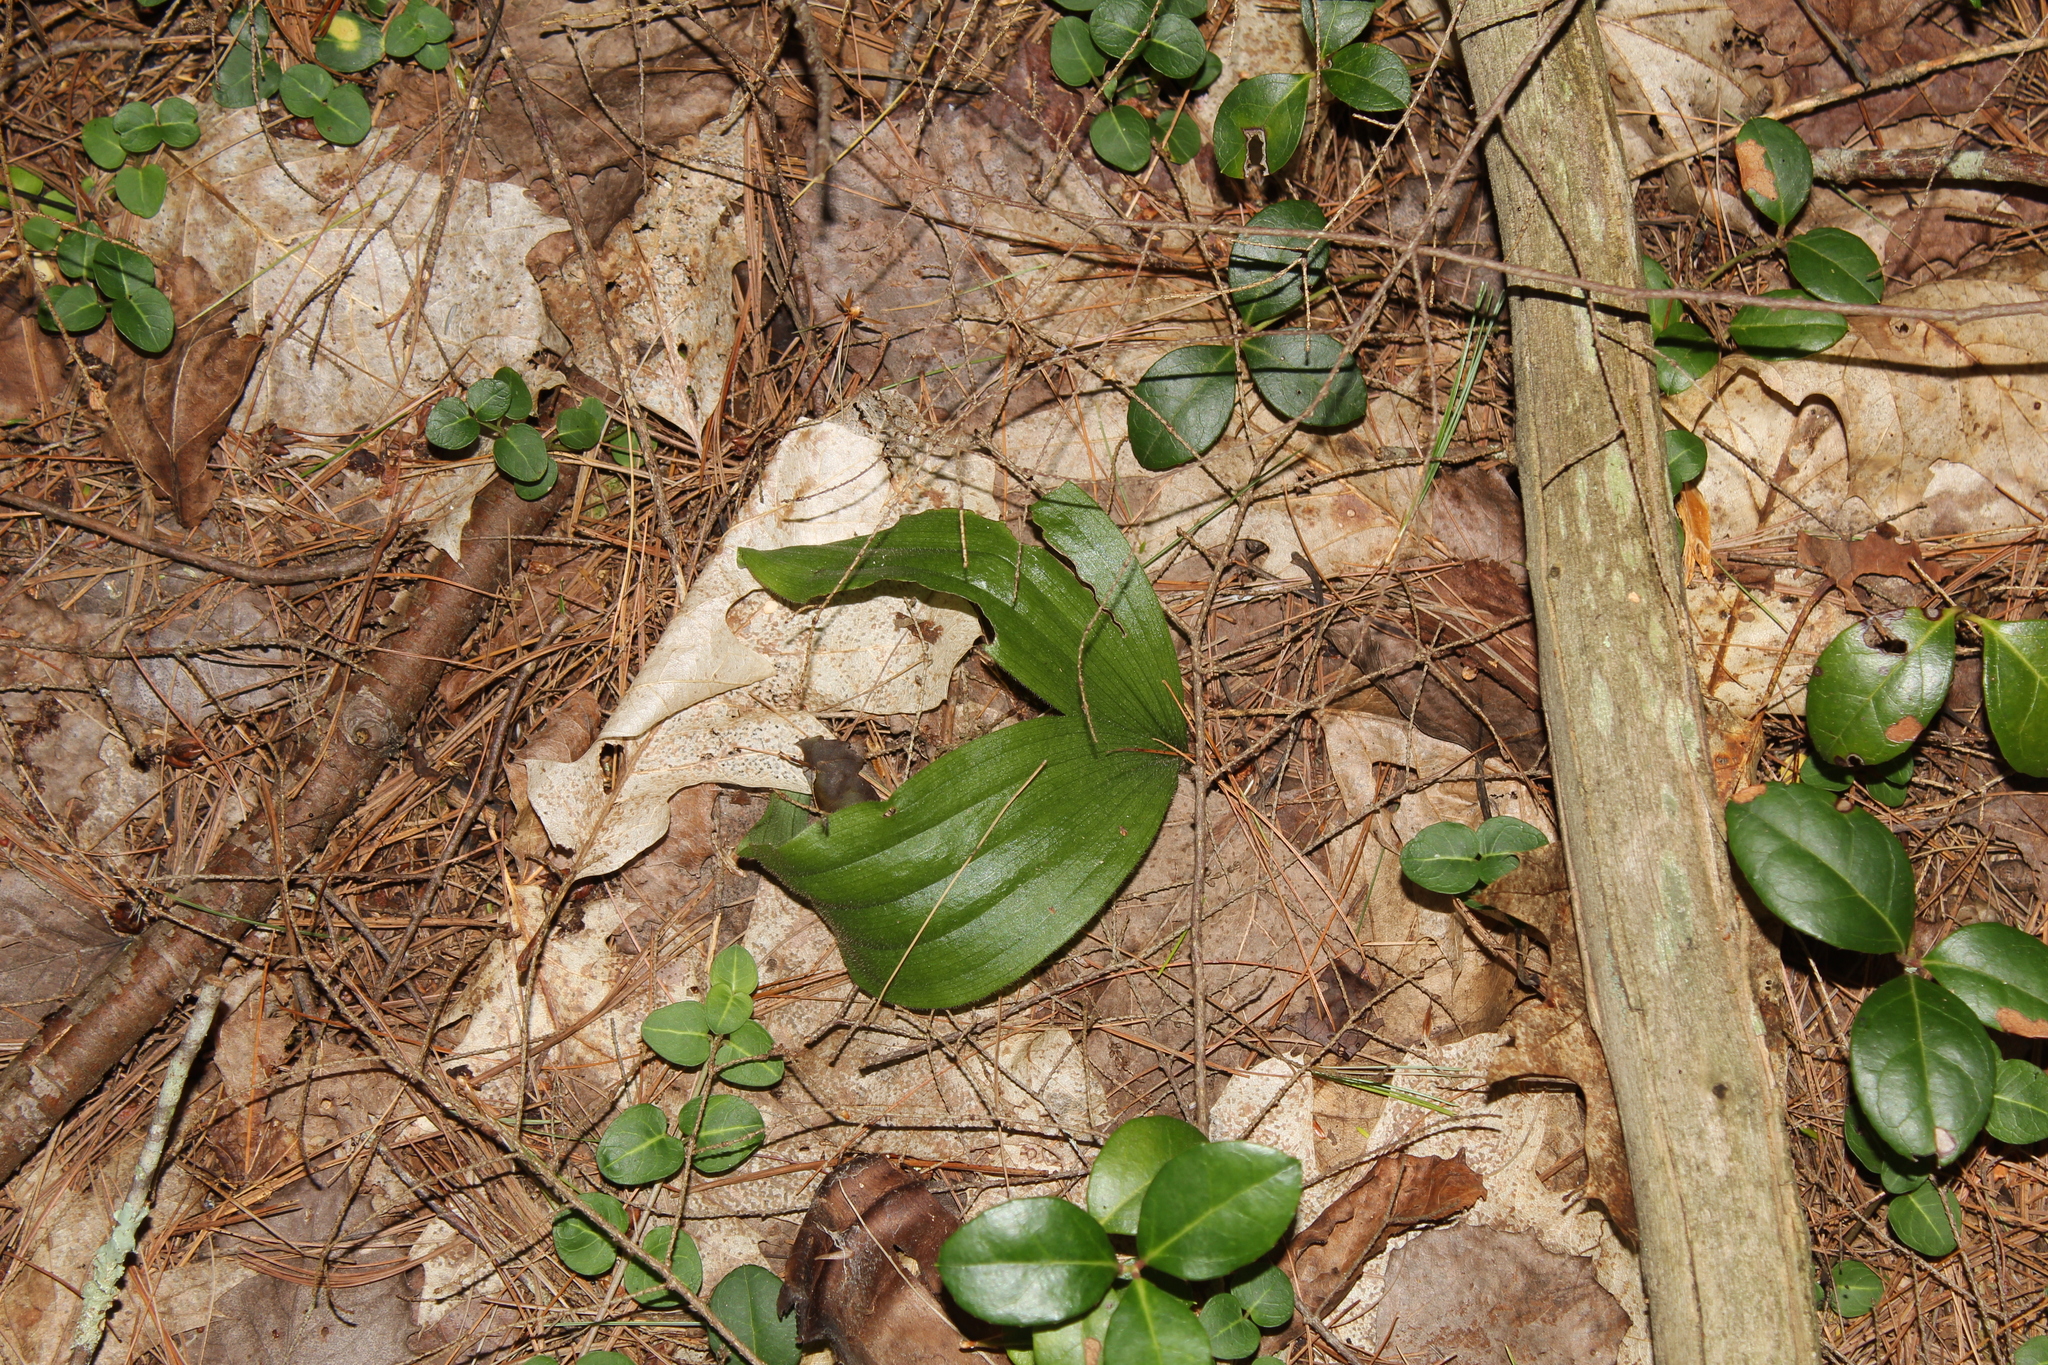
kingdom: Plantae
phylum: Tracheophyta
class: Liliopsida
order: Asparagales
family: Orchidaceae
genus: Cypripedium
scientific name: Cypripedium acaule
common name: Pink lady's-slipper
